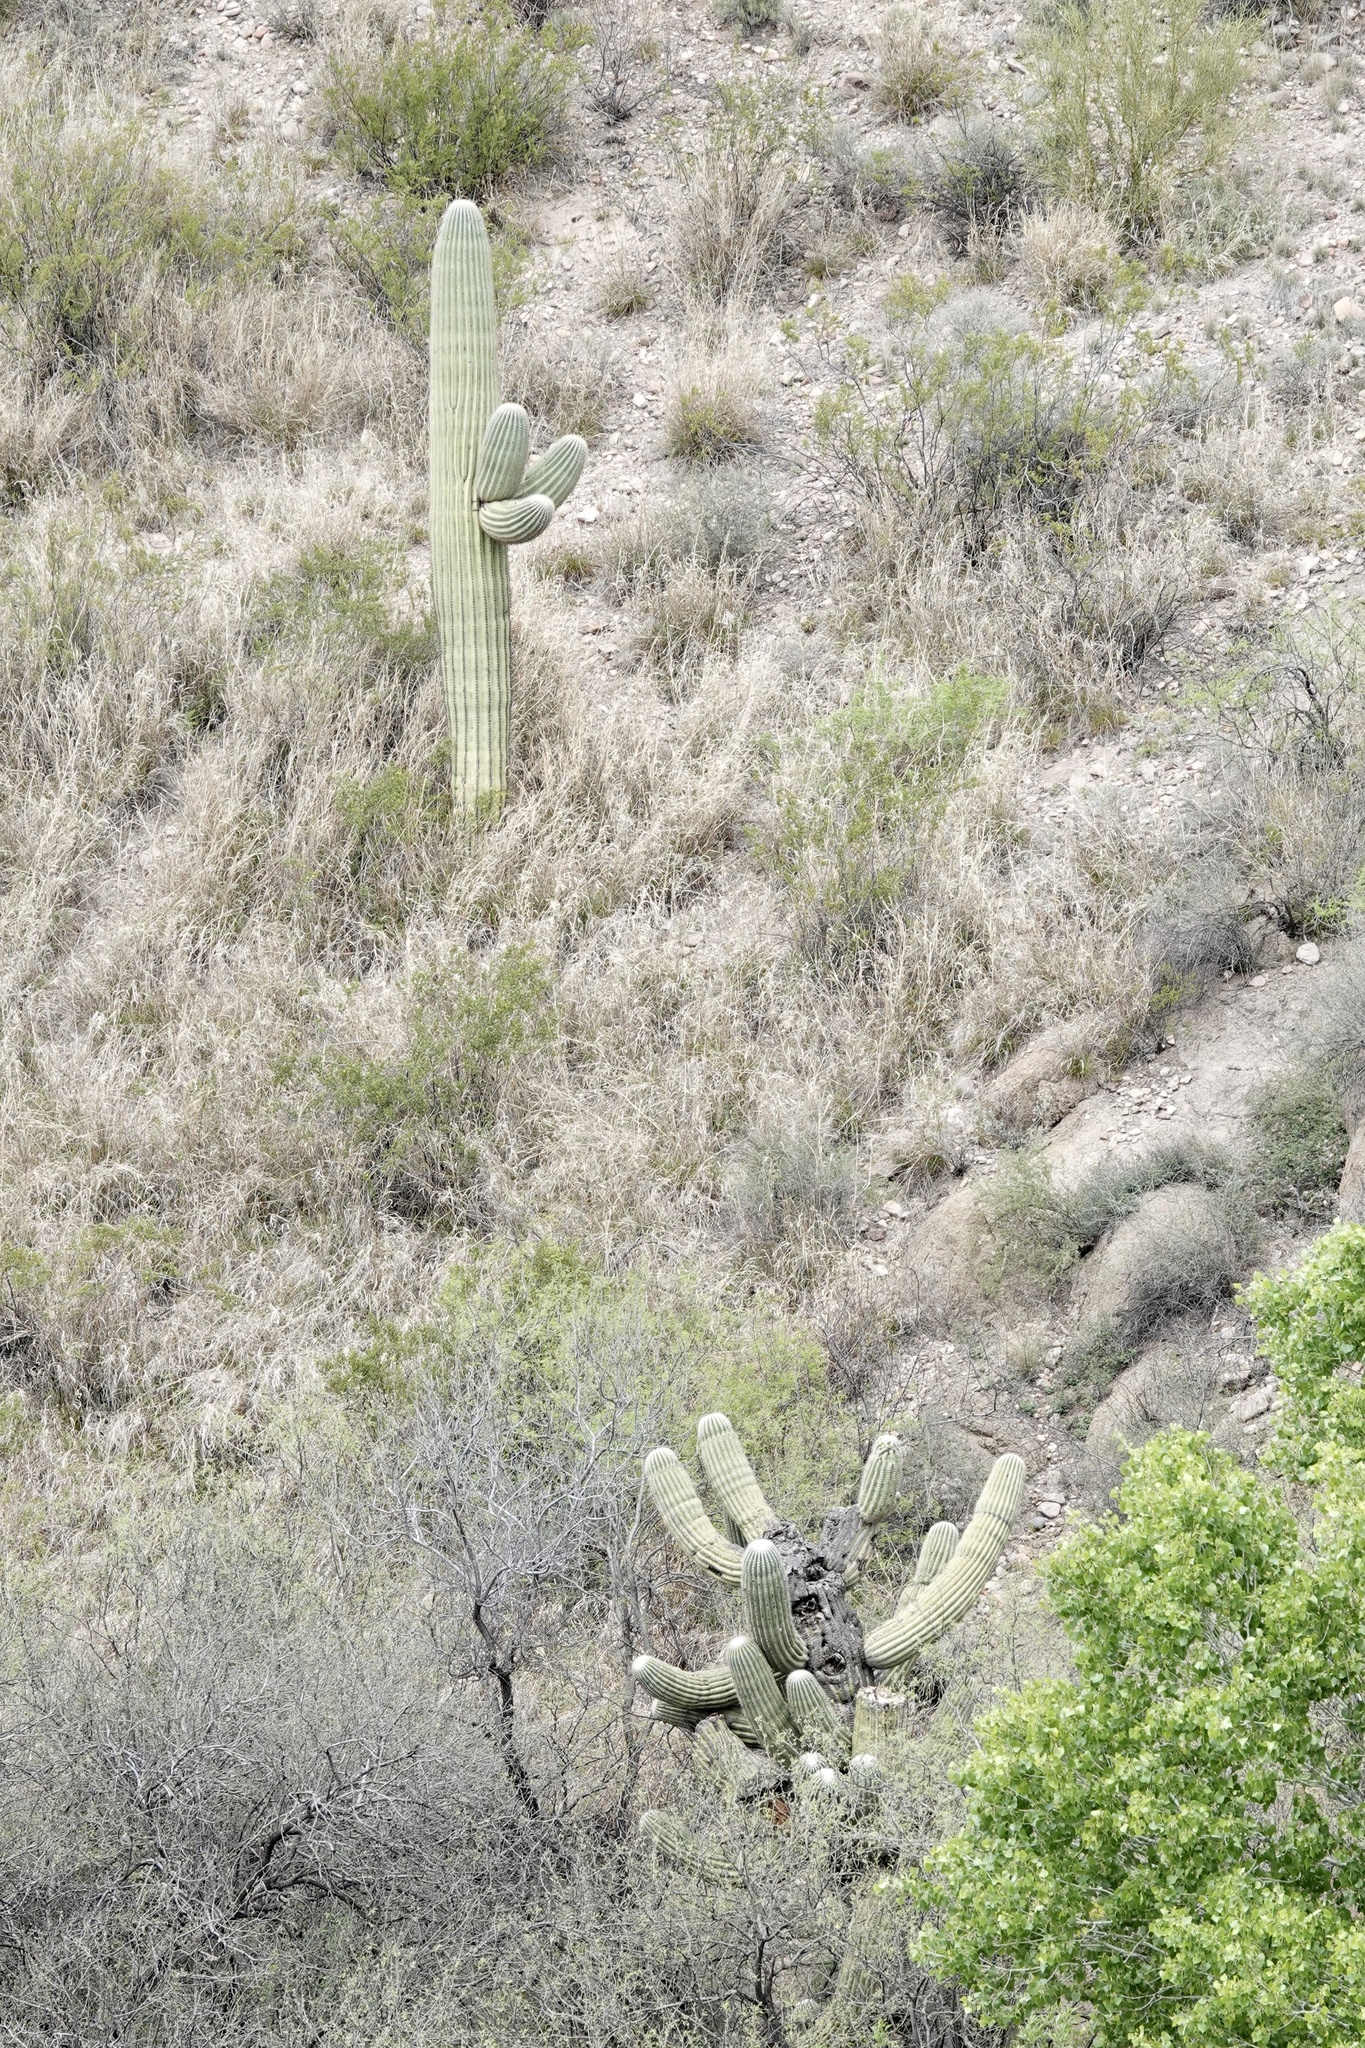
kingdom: Plantae
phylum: Tracheophyta
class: Magnoliopsida
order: Caryophyllales
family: Cactaceae
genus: Carnegiea
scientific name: Carnegiea gigantea
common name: Saguaro
